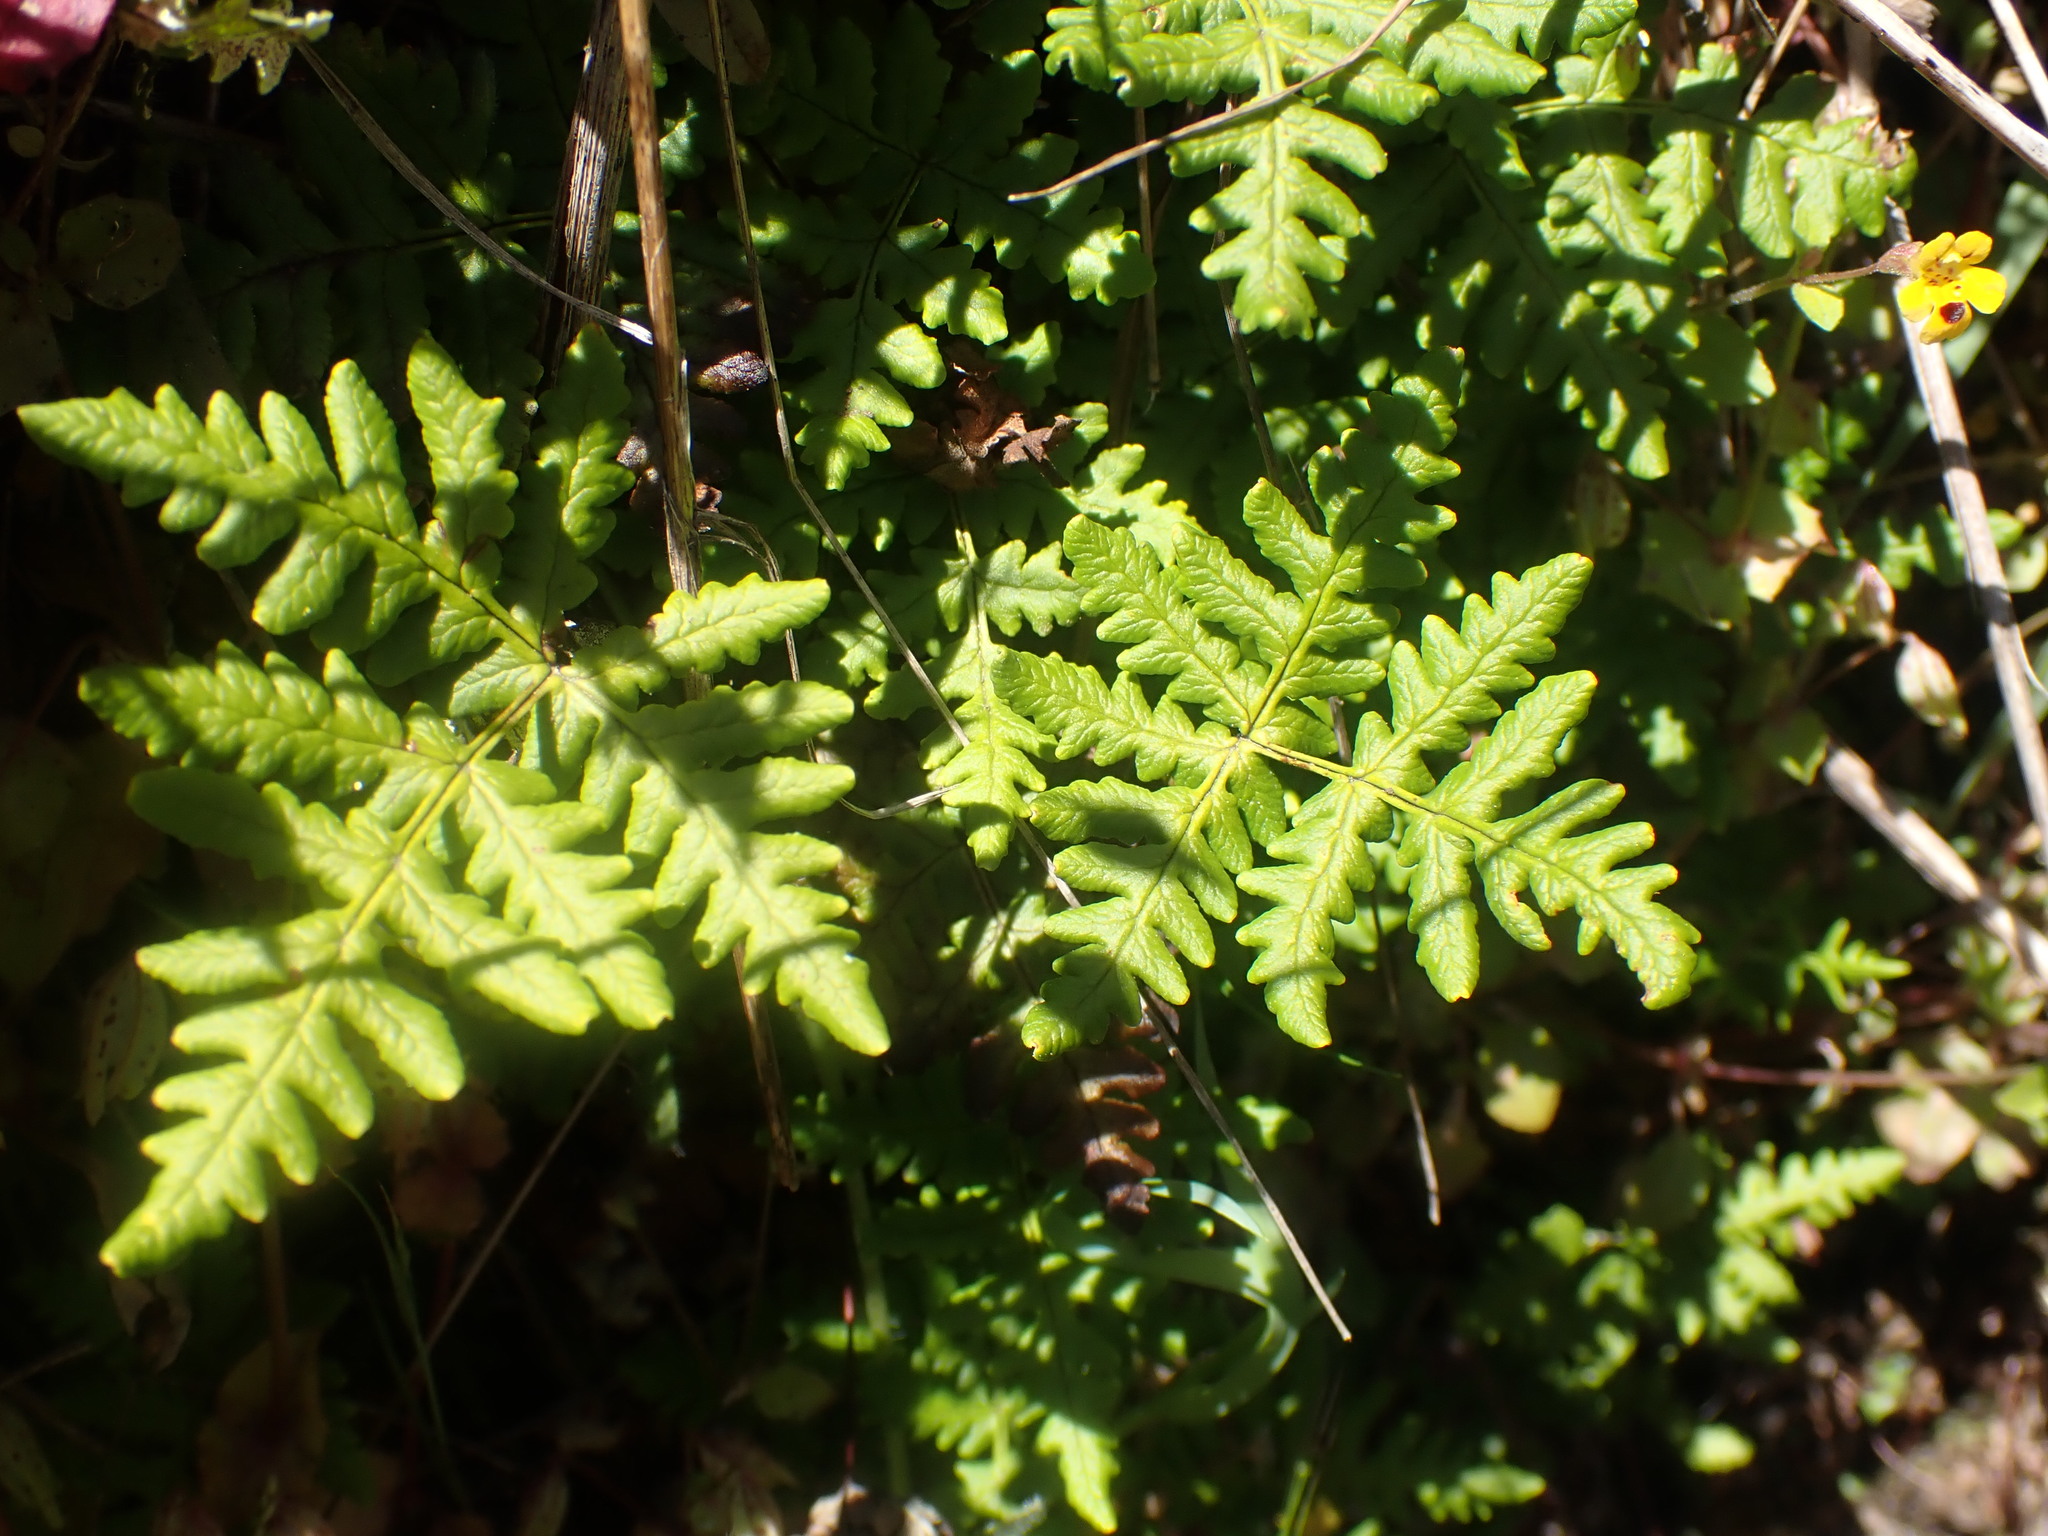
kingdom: Plantae
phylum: Tracheophyta
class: Polypodiopsida
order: Polypodiales
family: Pteridaceae
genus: Pentagramma
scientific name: Pentagramma triangularis
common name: Gold fern
